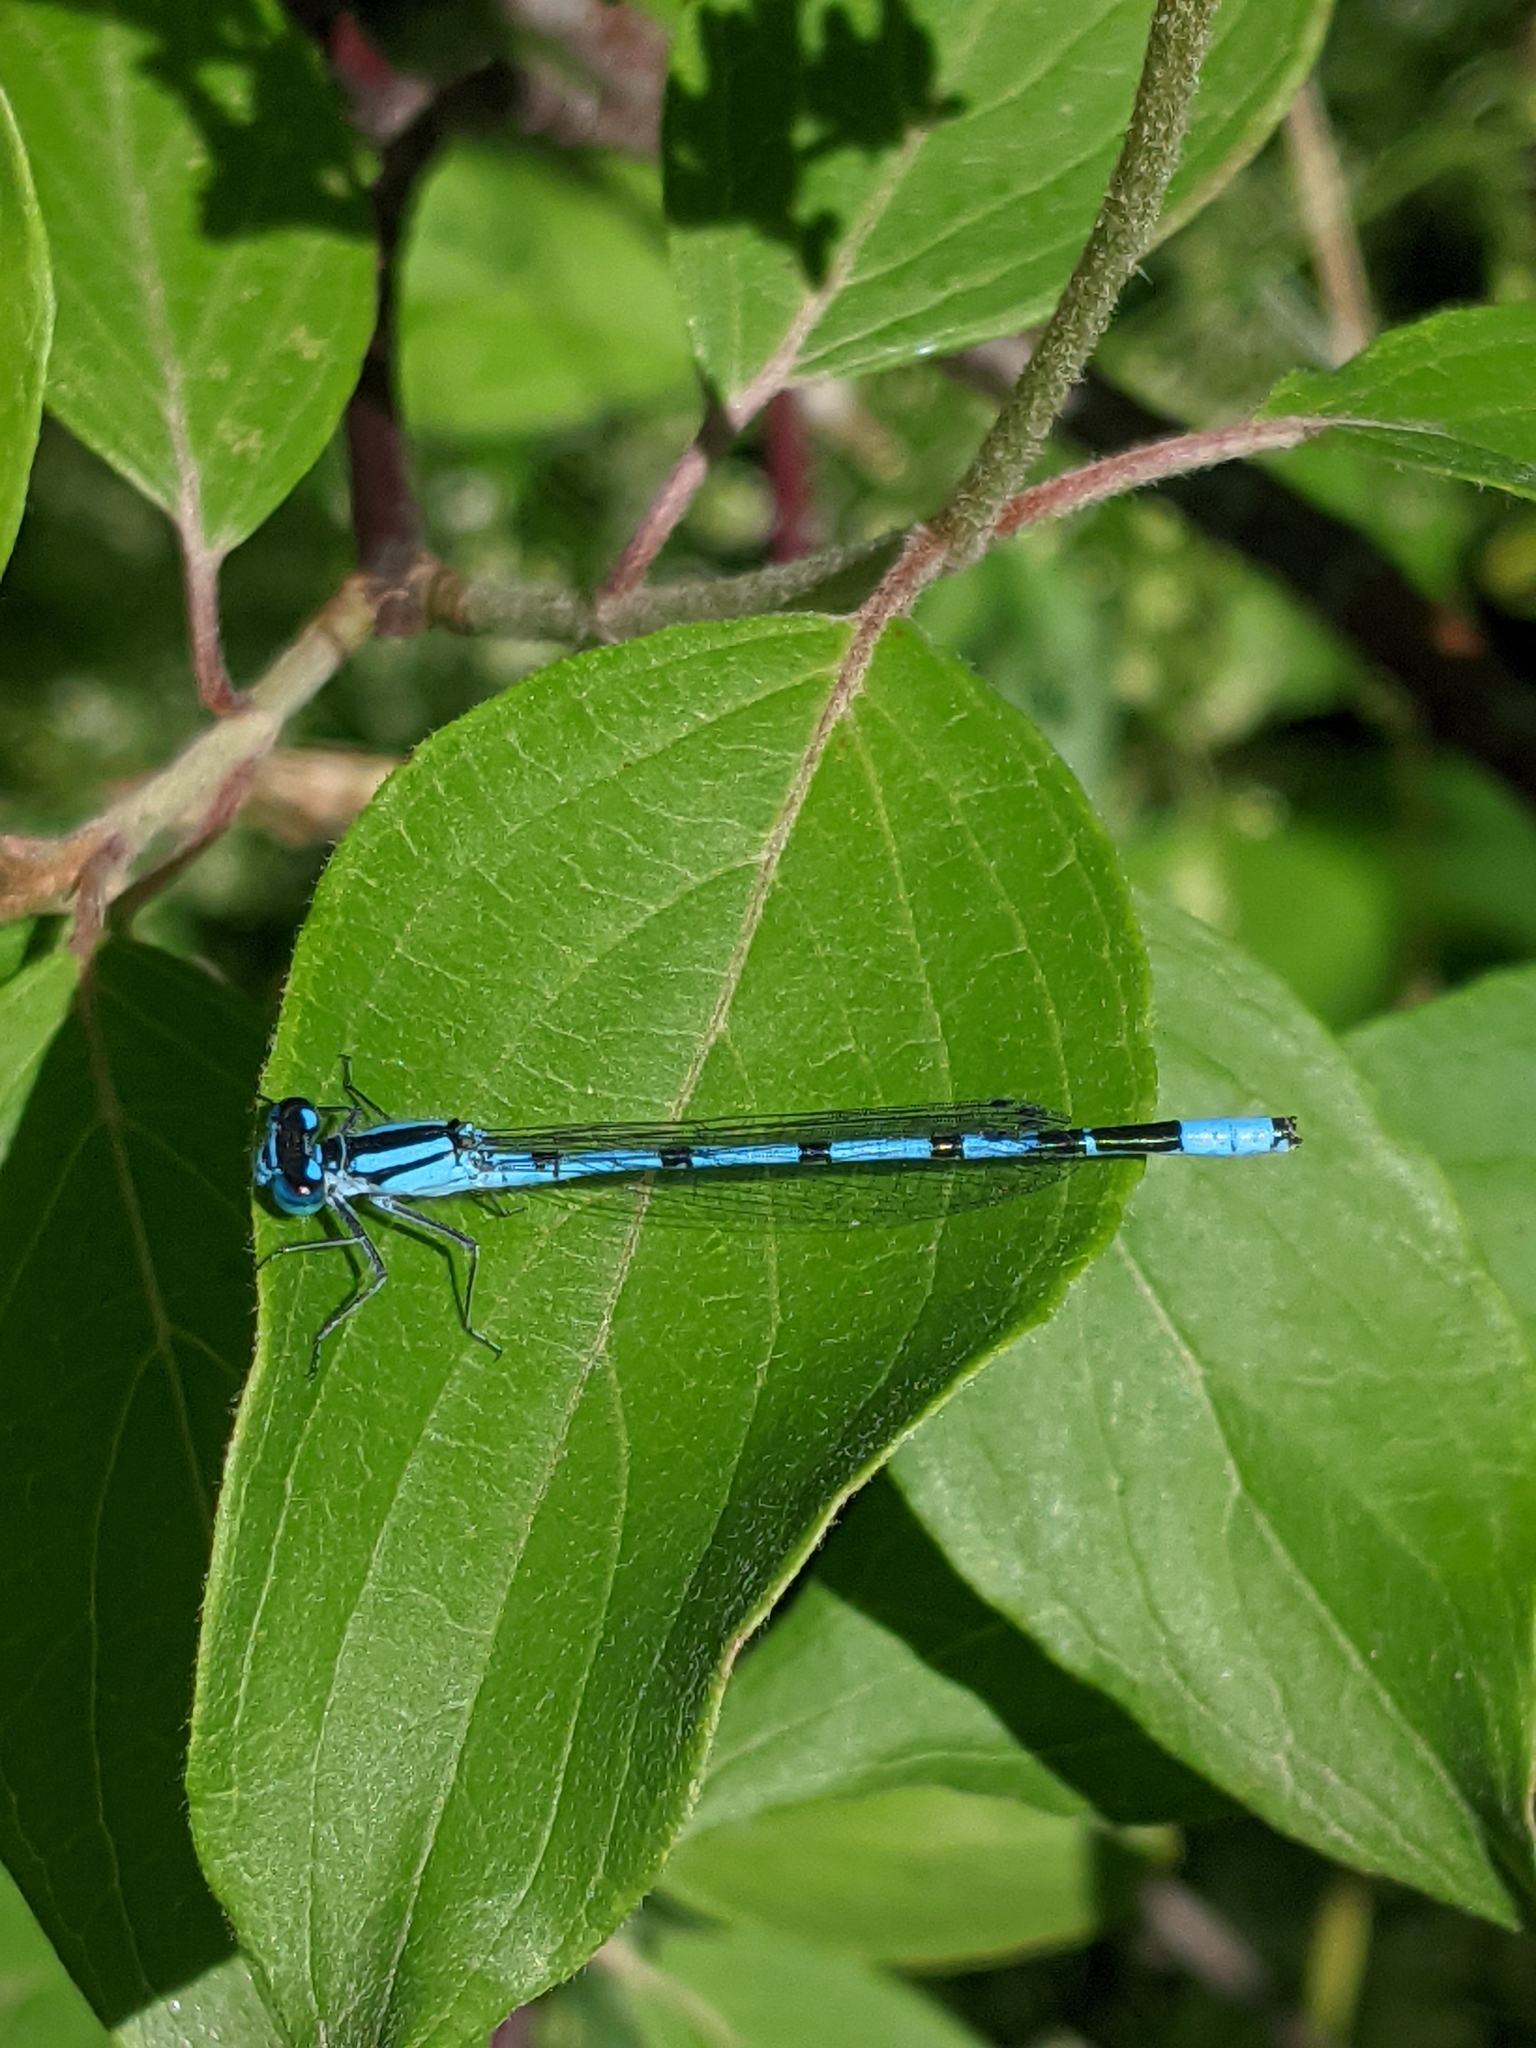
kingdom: Animalia
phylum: Arthropoda
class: Insecta
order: Odonata
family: Coenagrionidae
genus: Enallagma
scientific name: Enallagma ebrium
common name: Marsh bluet
